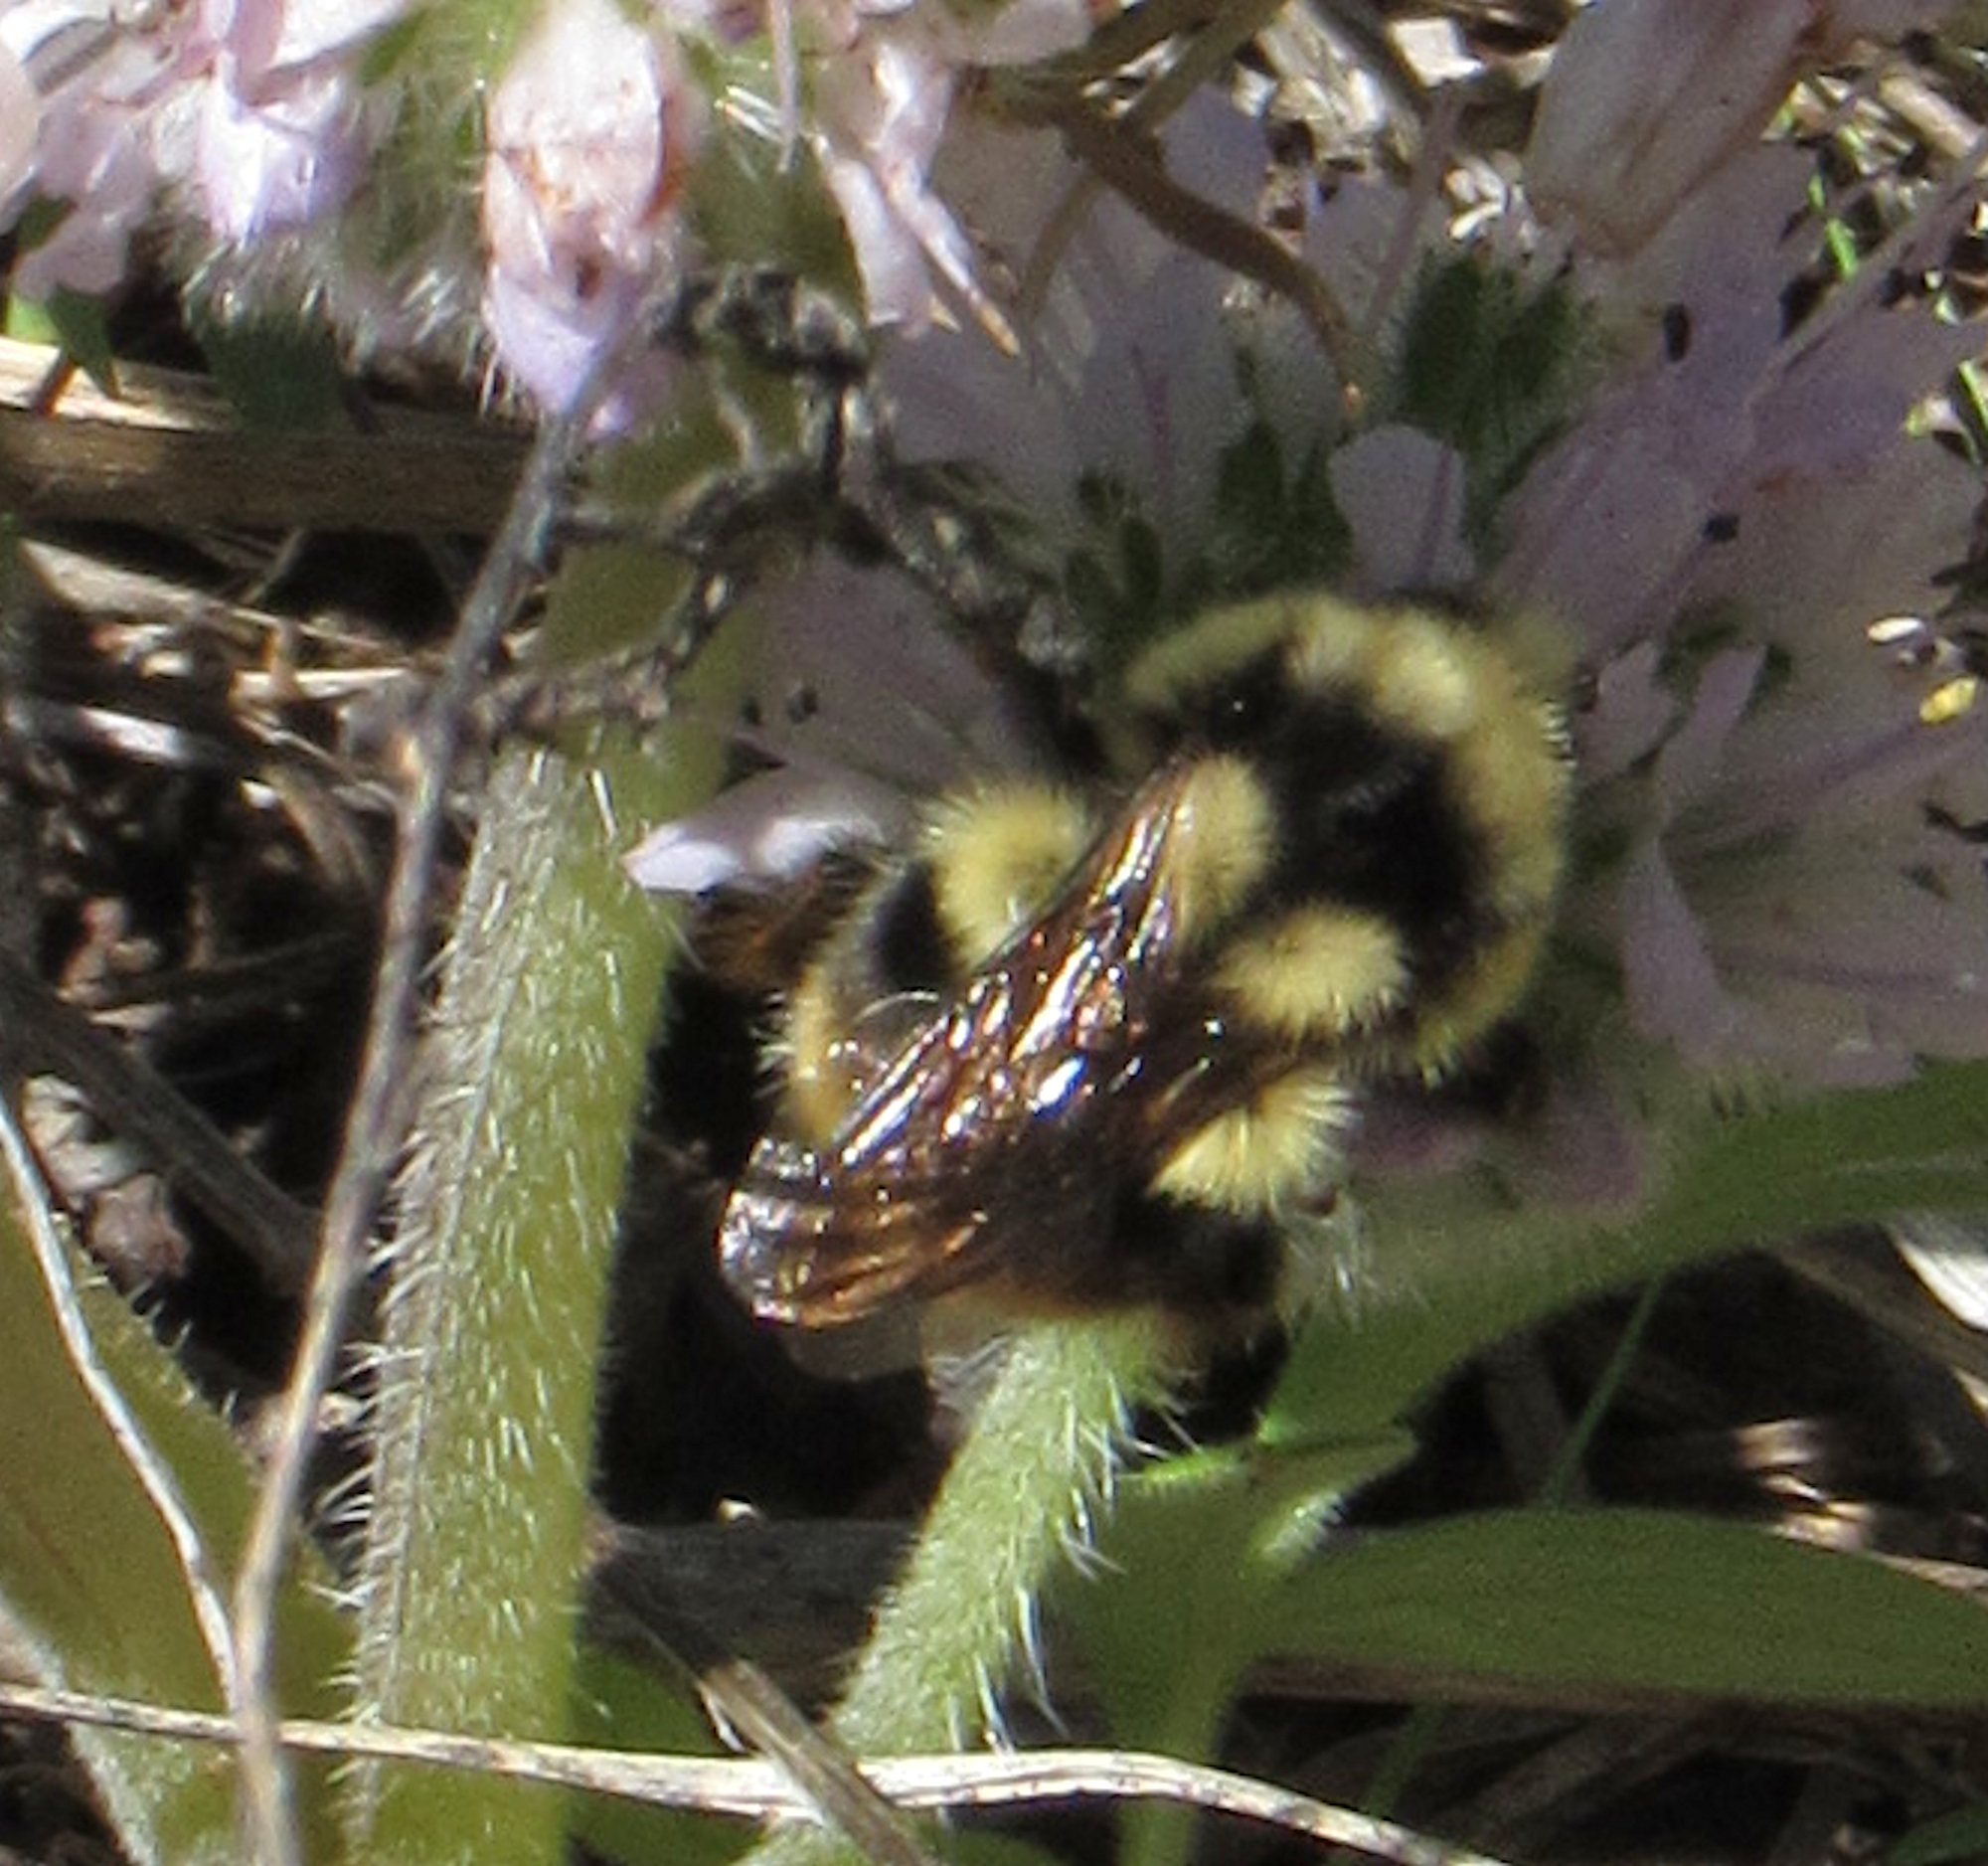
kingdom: Animalia
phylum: Arthropoda
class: Insecta
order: Hymenoptera
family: Apidae
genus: Bombus
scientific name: Bombus vancouverensis
